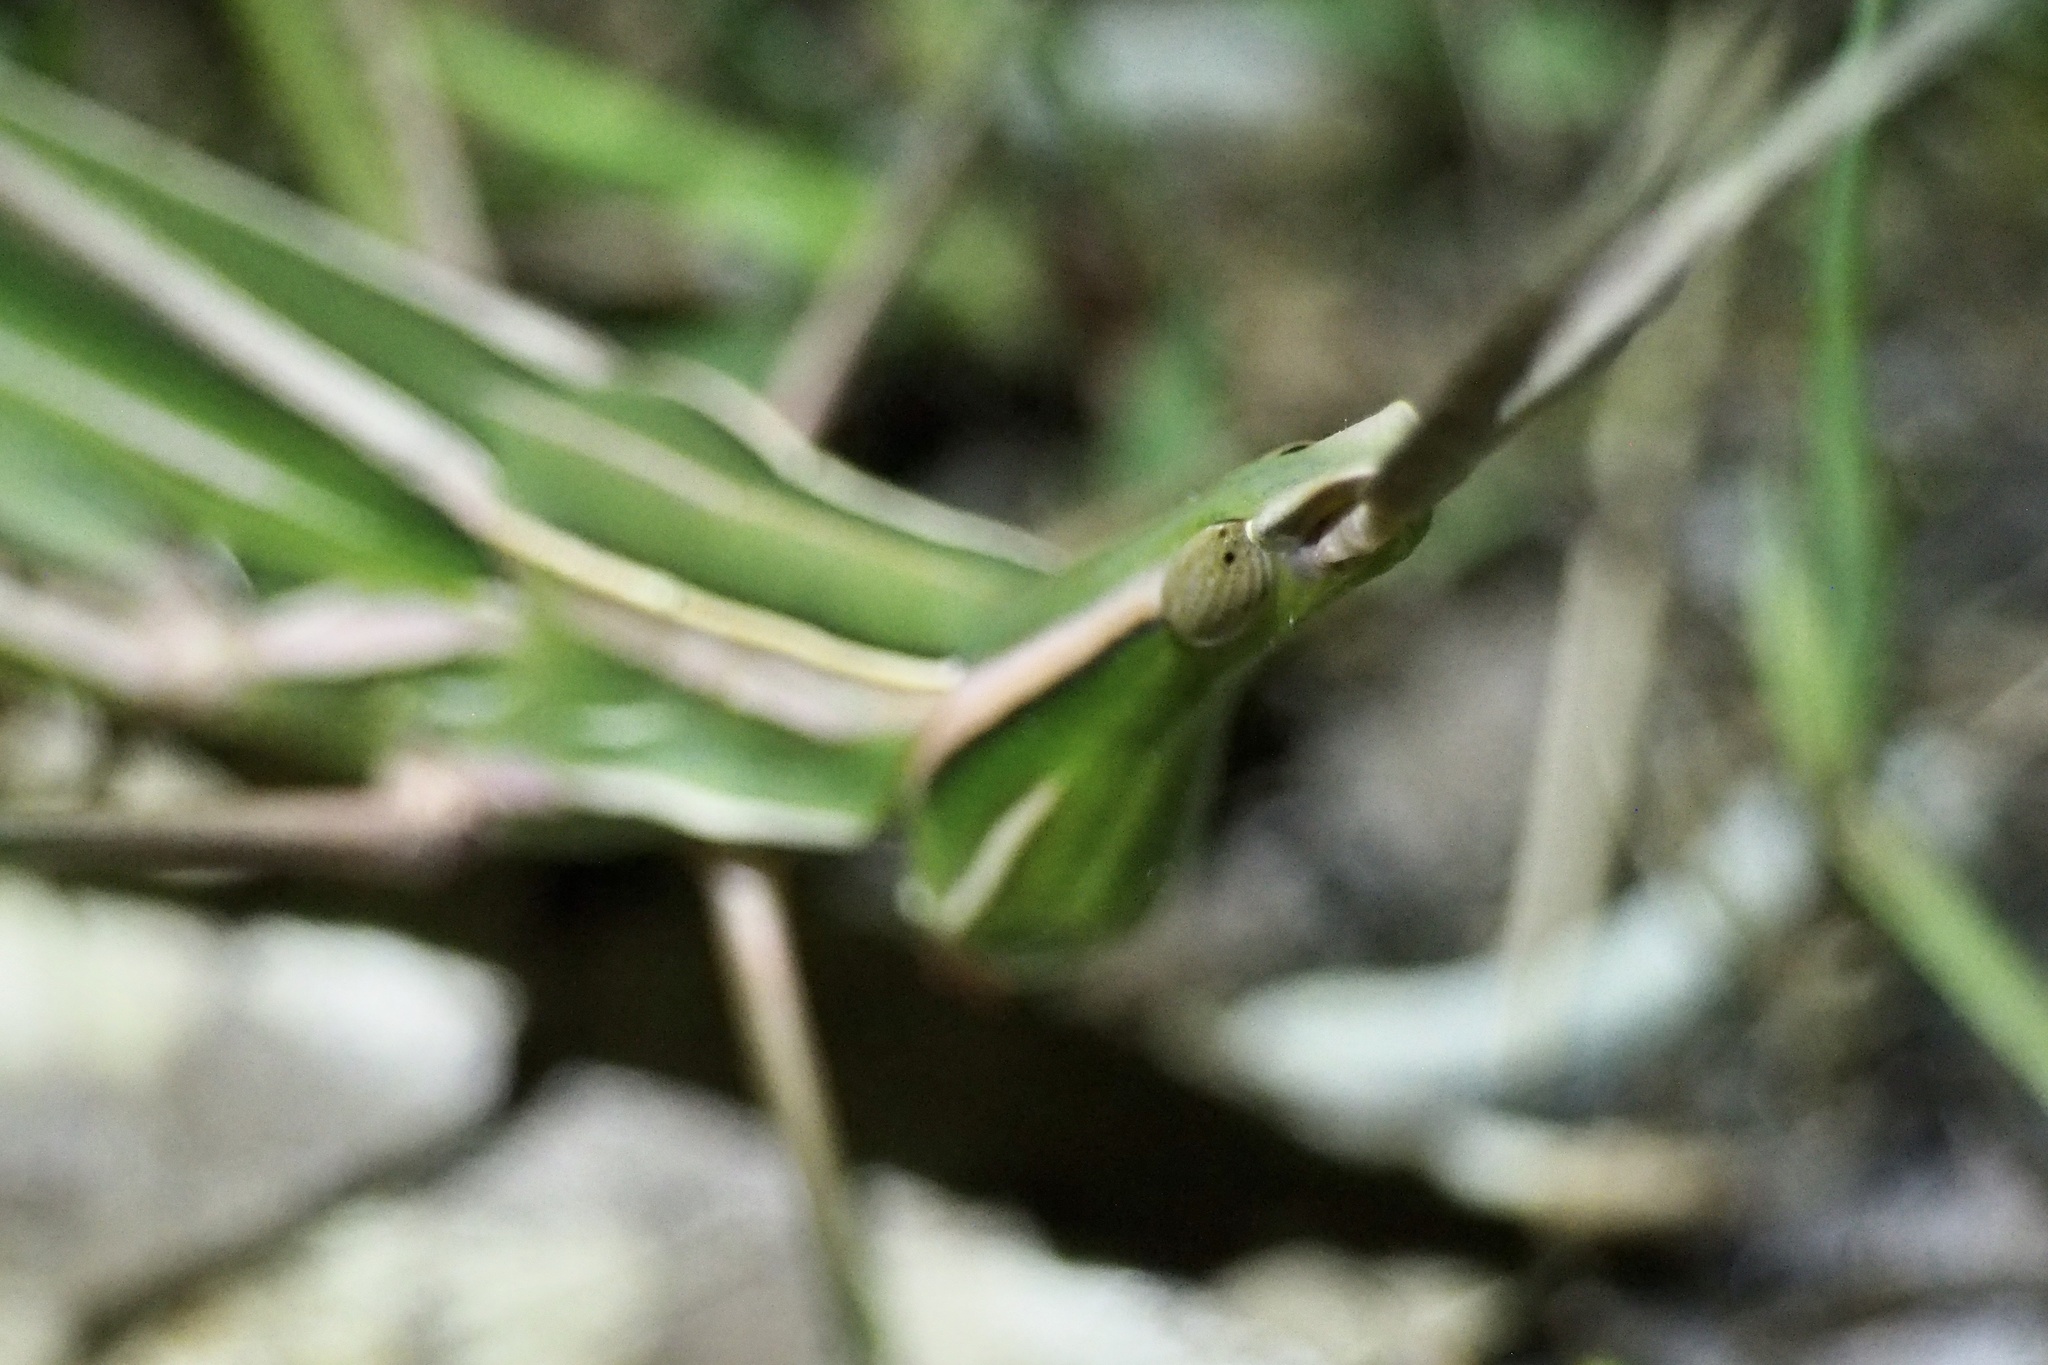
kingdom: Animalia
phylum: Arthropoda
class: Insecta
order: Orthoptera
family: Acrididae
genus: Acrida
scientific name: Acrida cinerea
